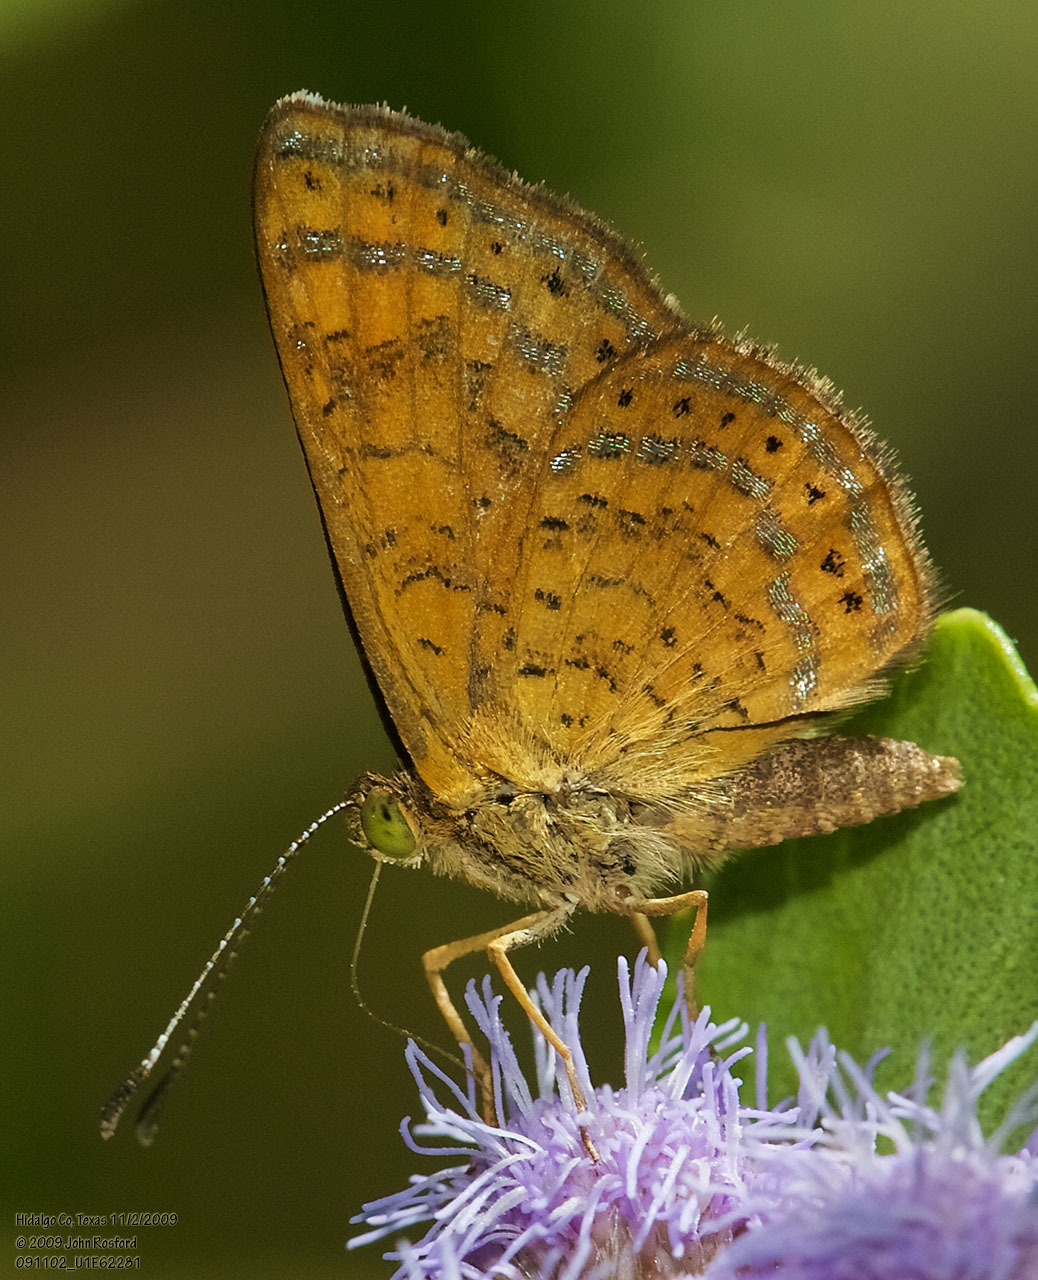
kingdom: Animalia
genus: Calephelis
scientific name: Calephelis nemesis
